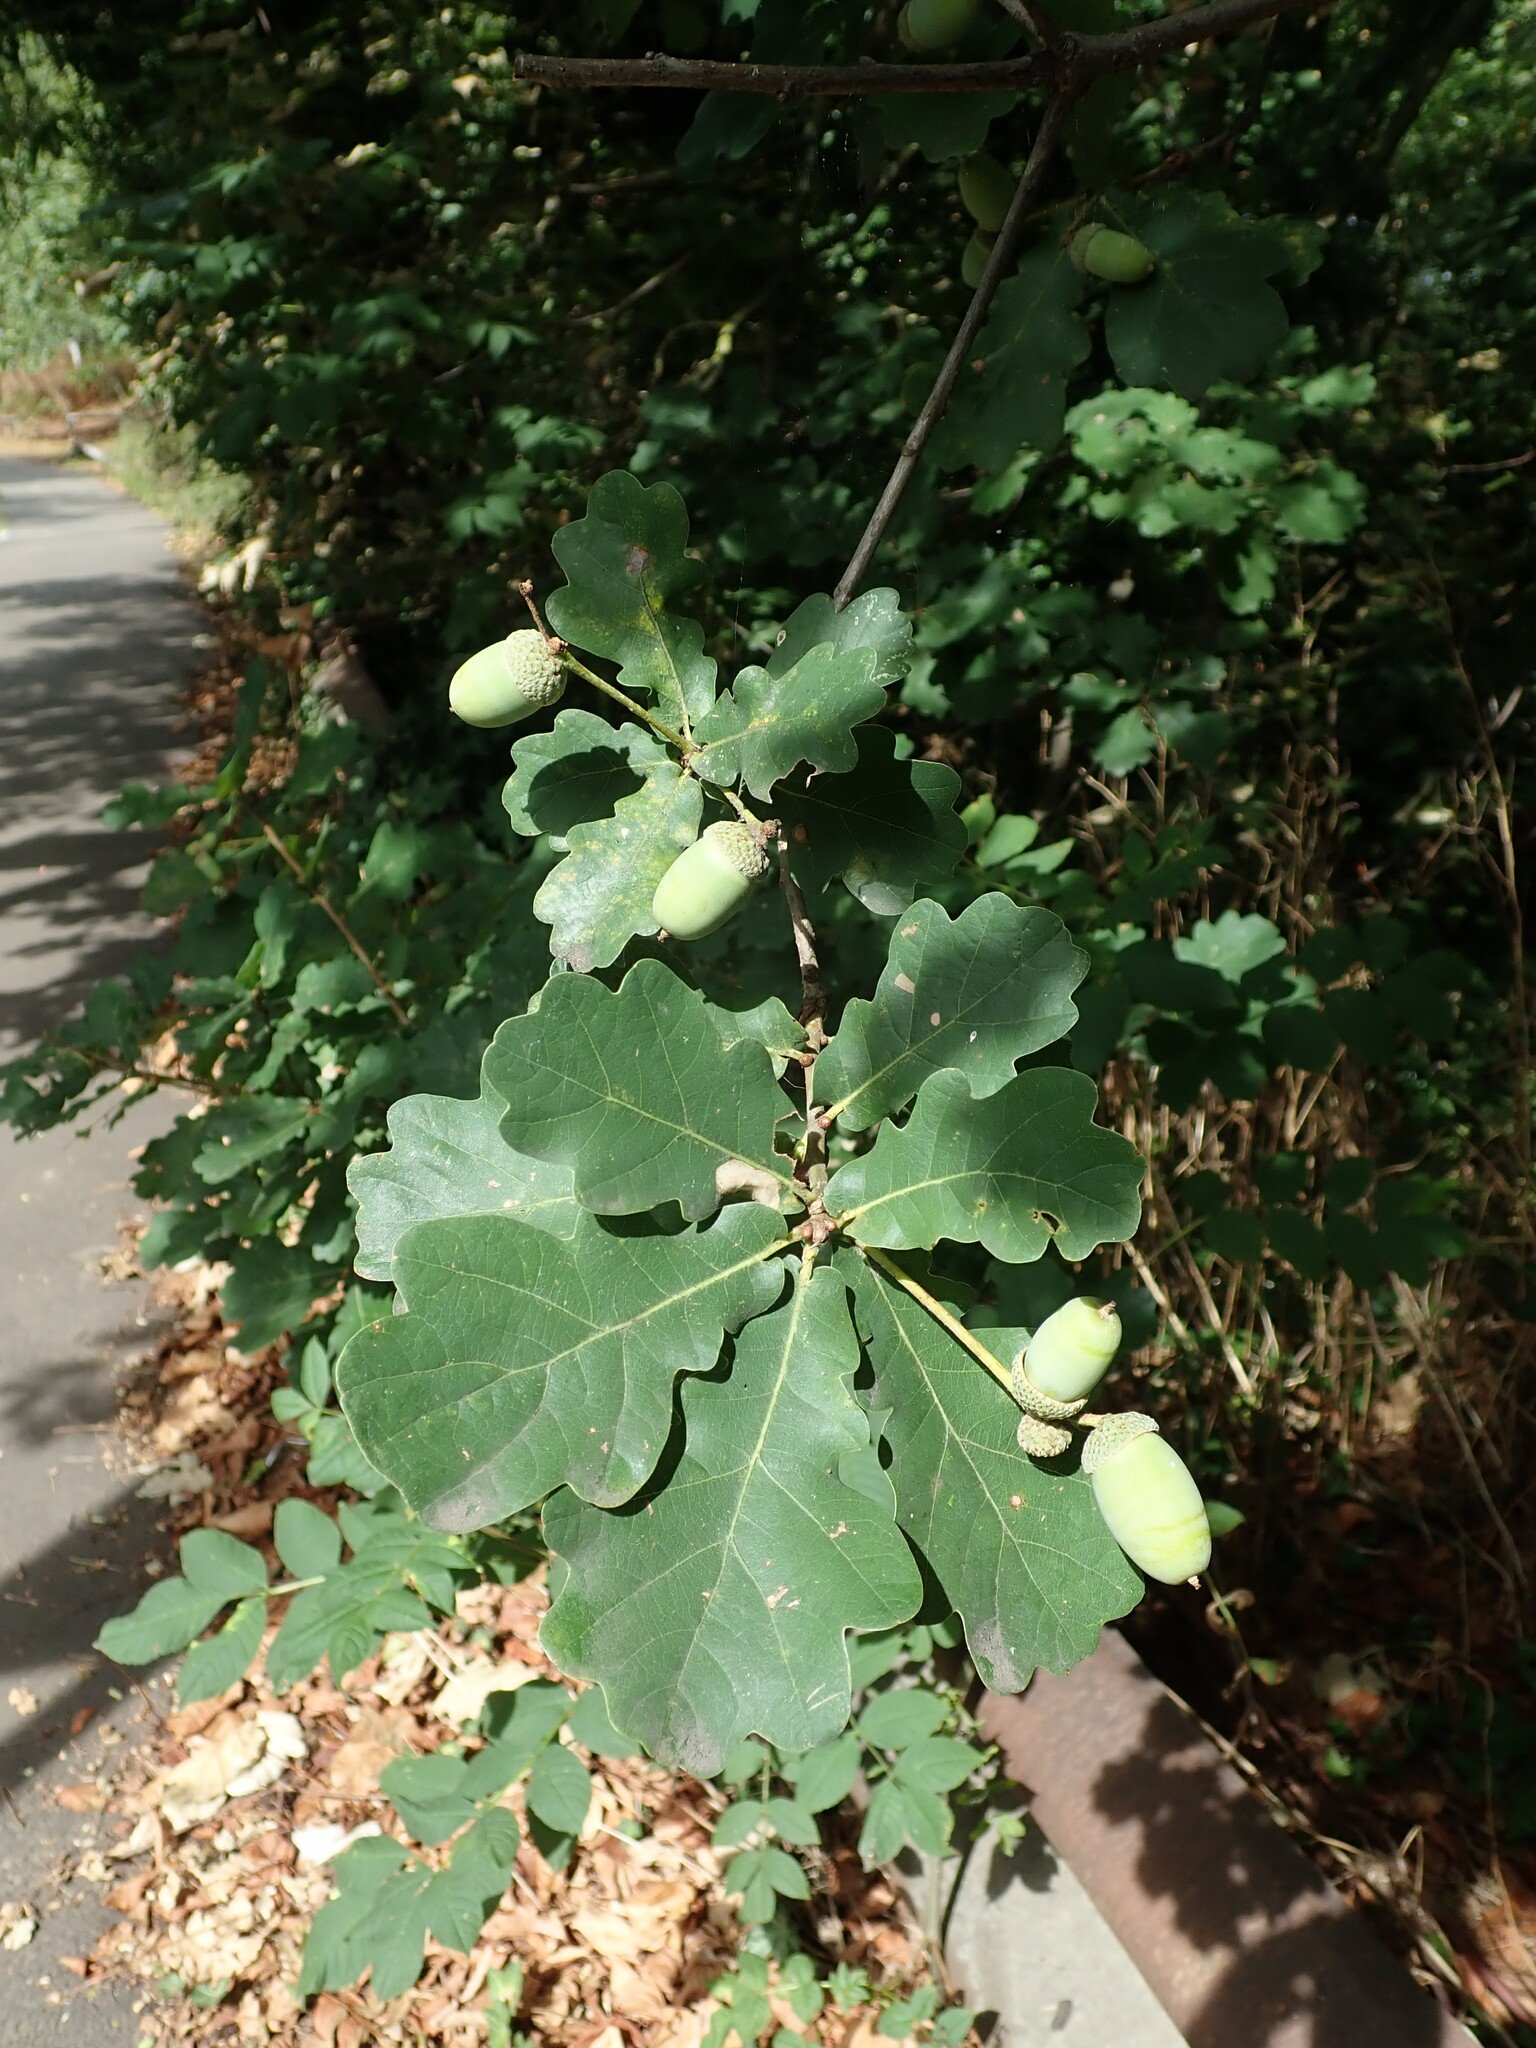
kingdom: Plantae
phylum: Tracheophyta
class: Magnoliopsida
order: Fagales
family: Fagaceae
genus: Quercus
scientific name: Quercus robur
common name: Pedunculate oak
